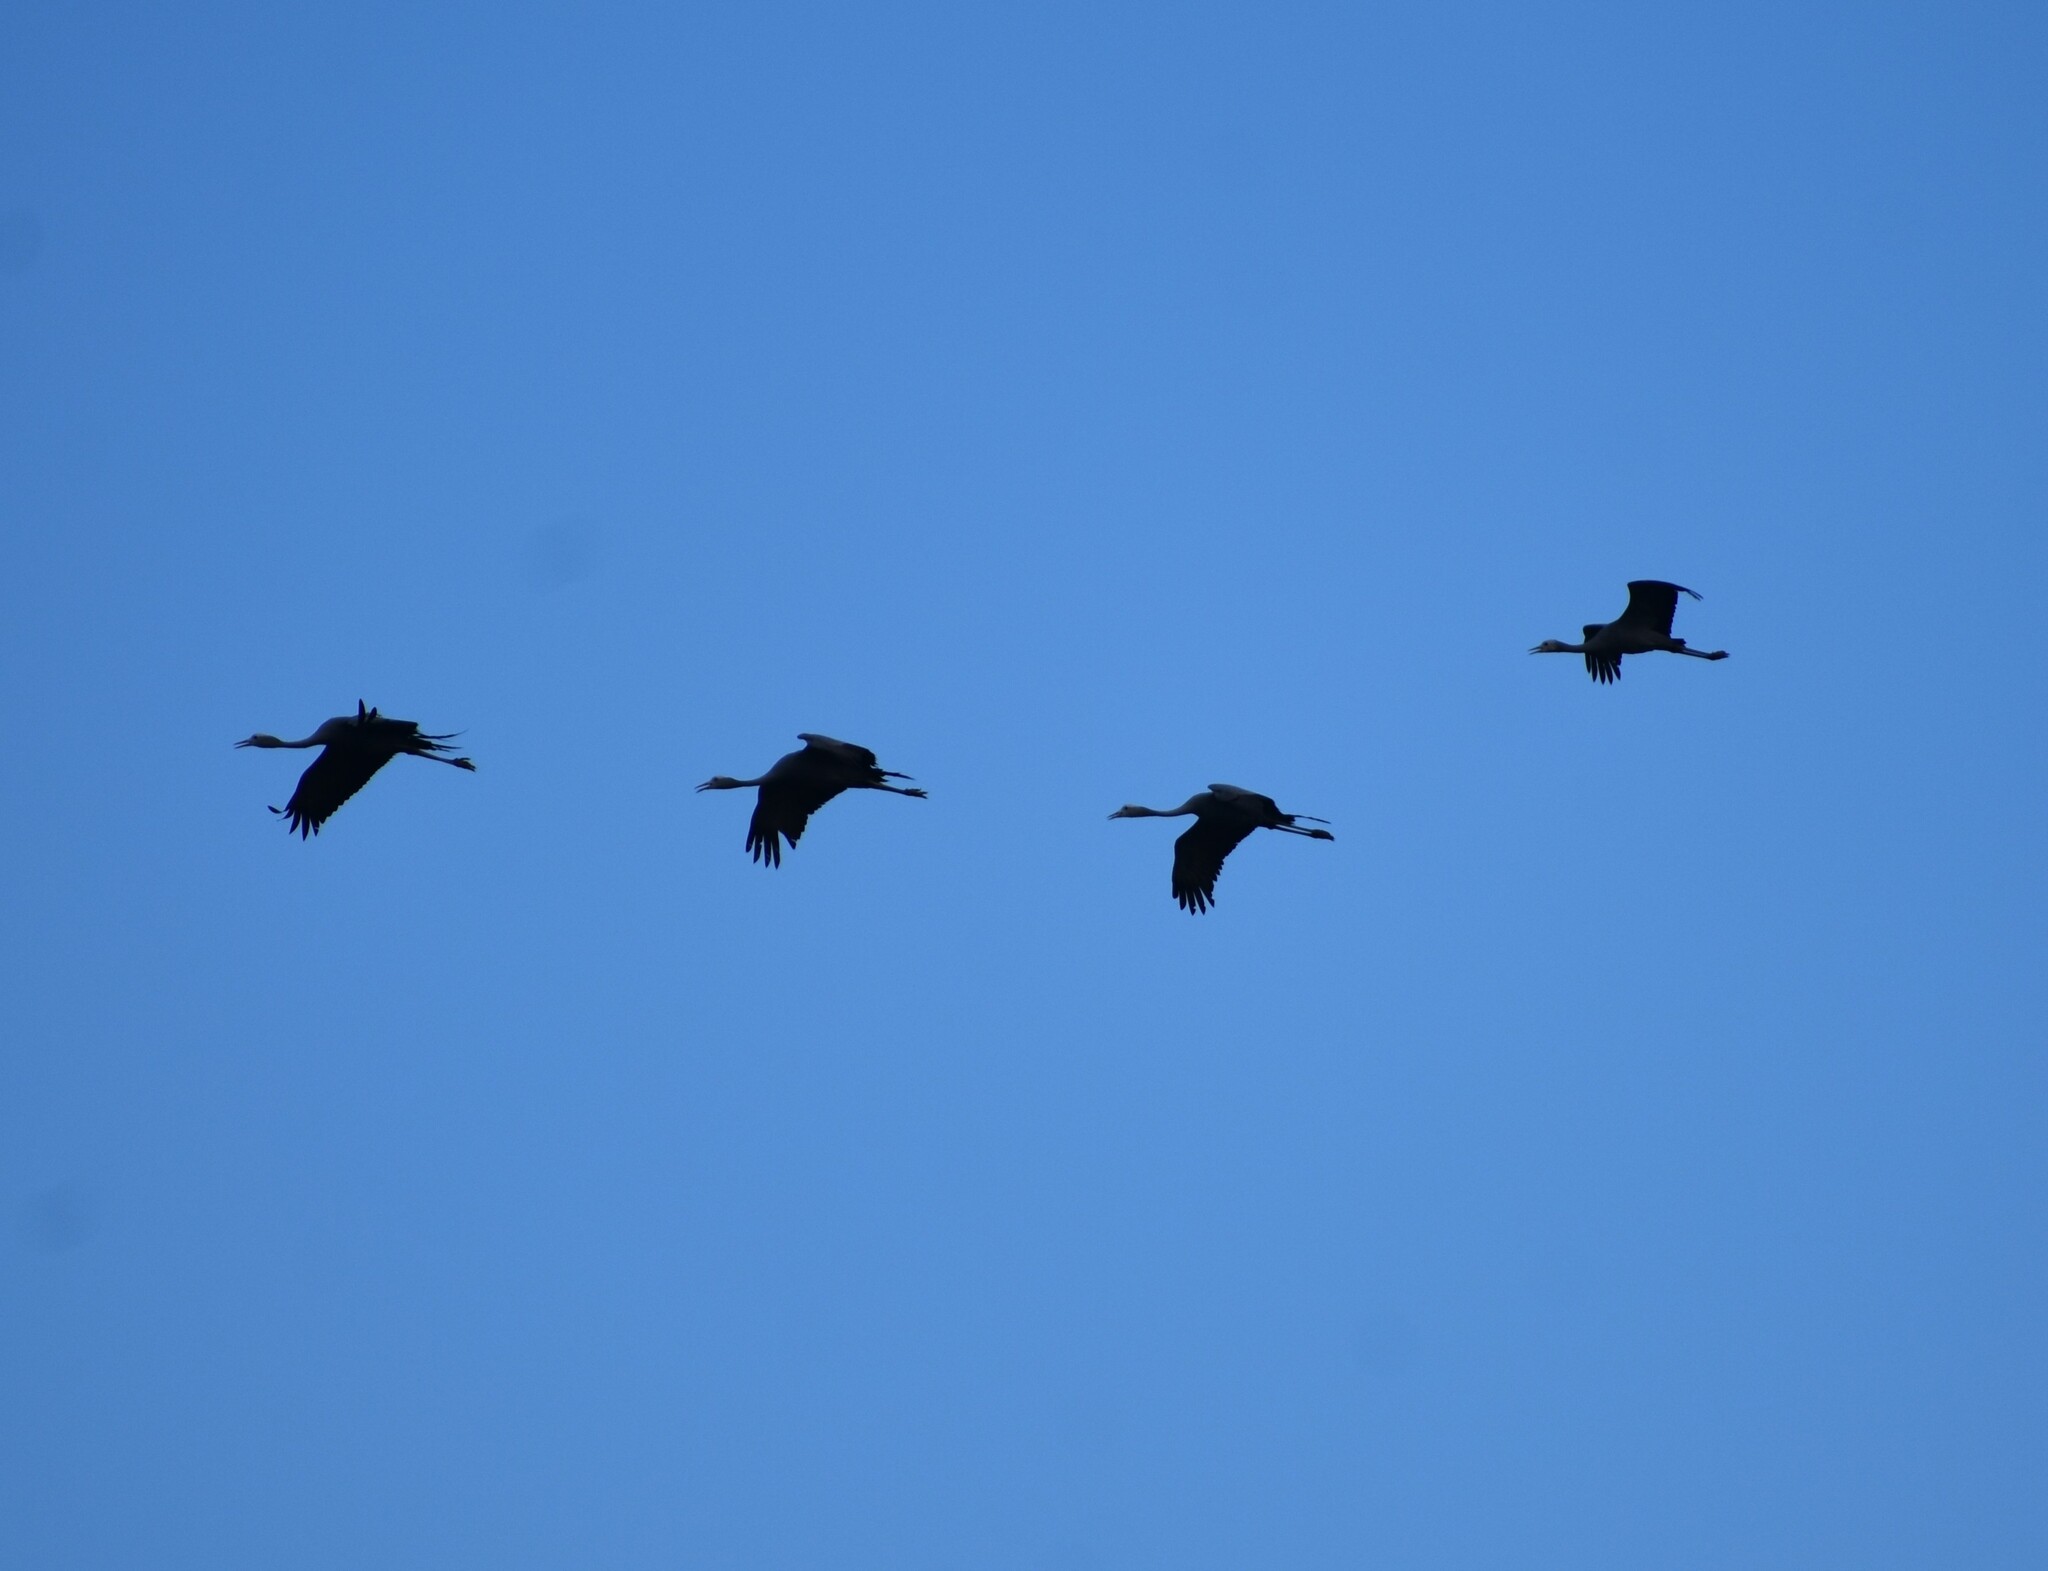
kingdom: Animalia
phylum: Chordata
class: Aves
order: Gruiformes
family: Gruidae
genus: Anthropoides
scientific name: Anthropoides paradiseus
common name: Blue crane
